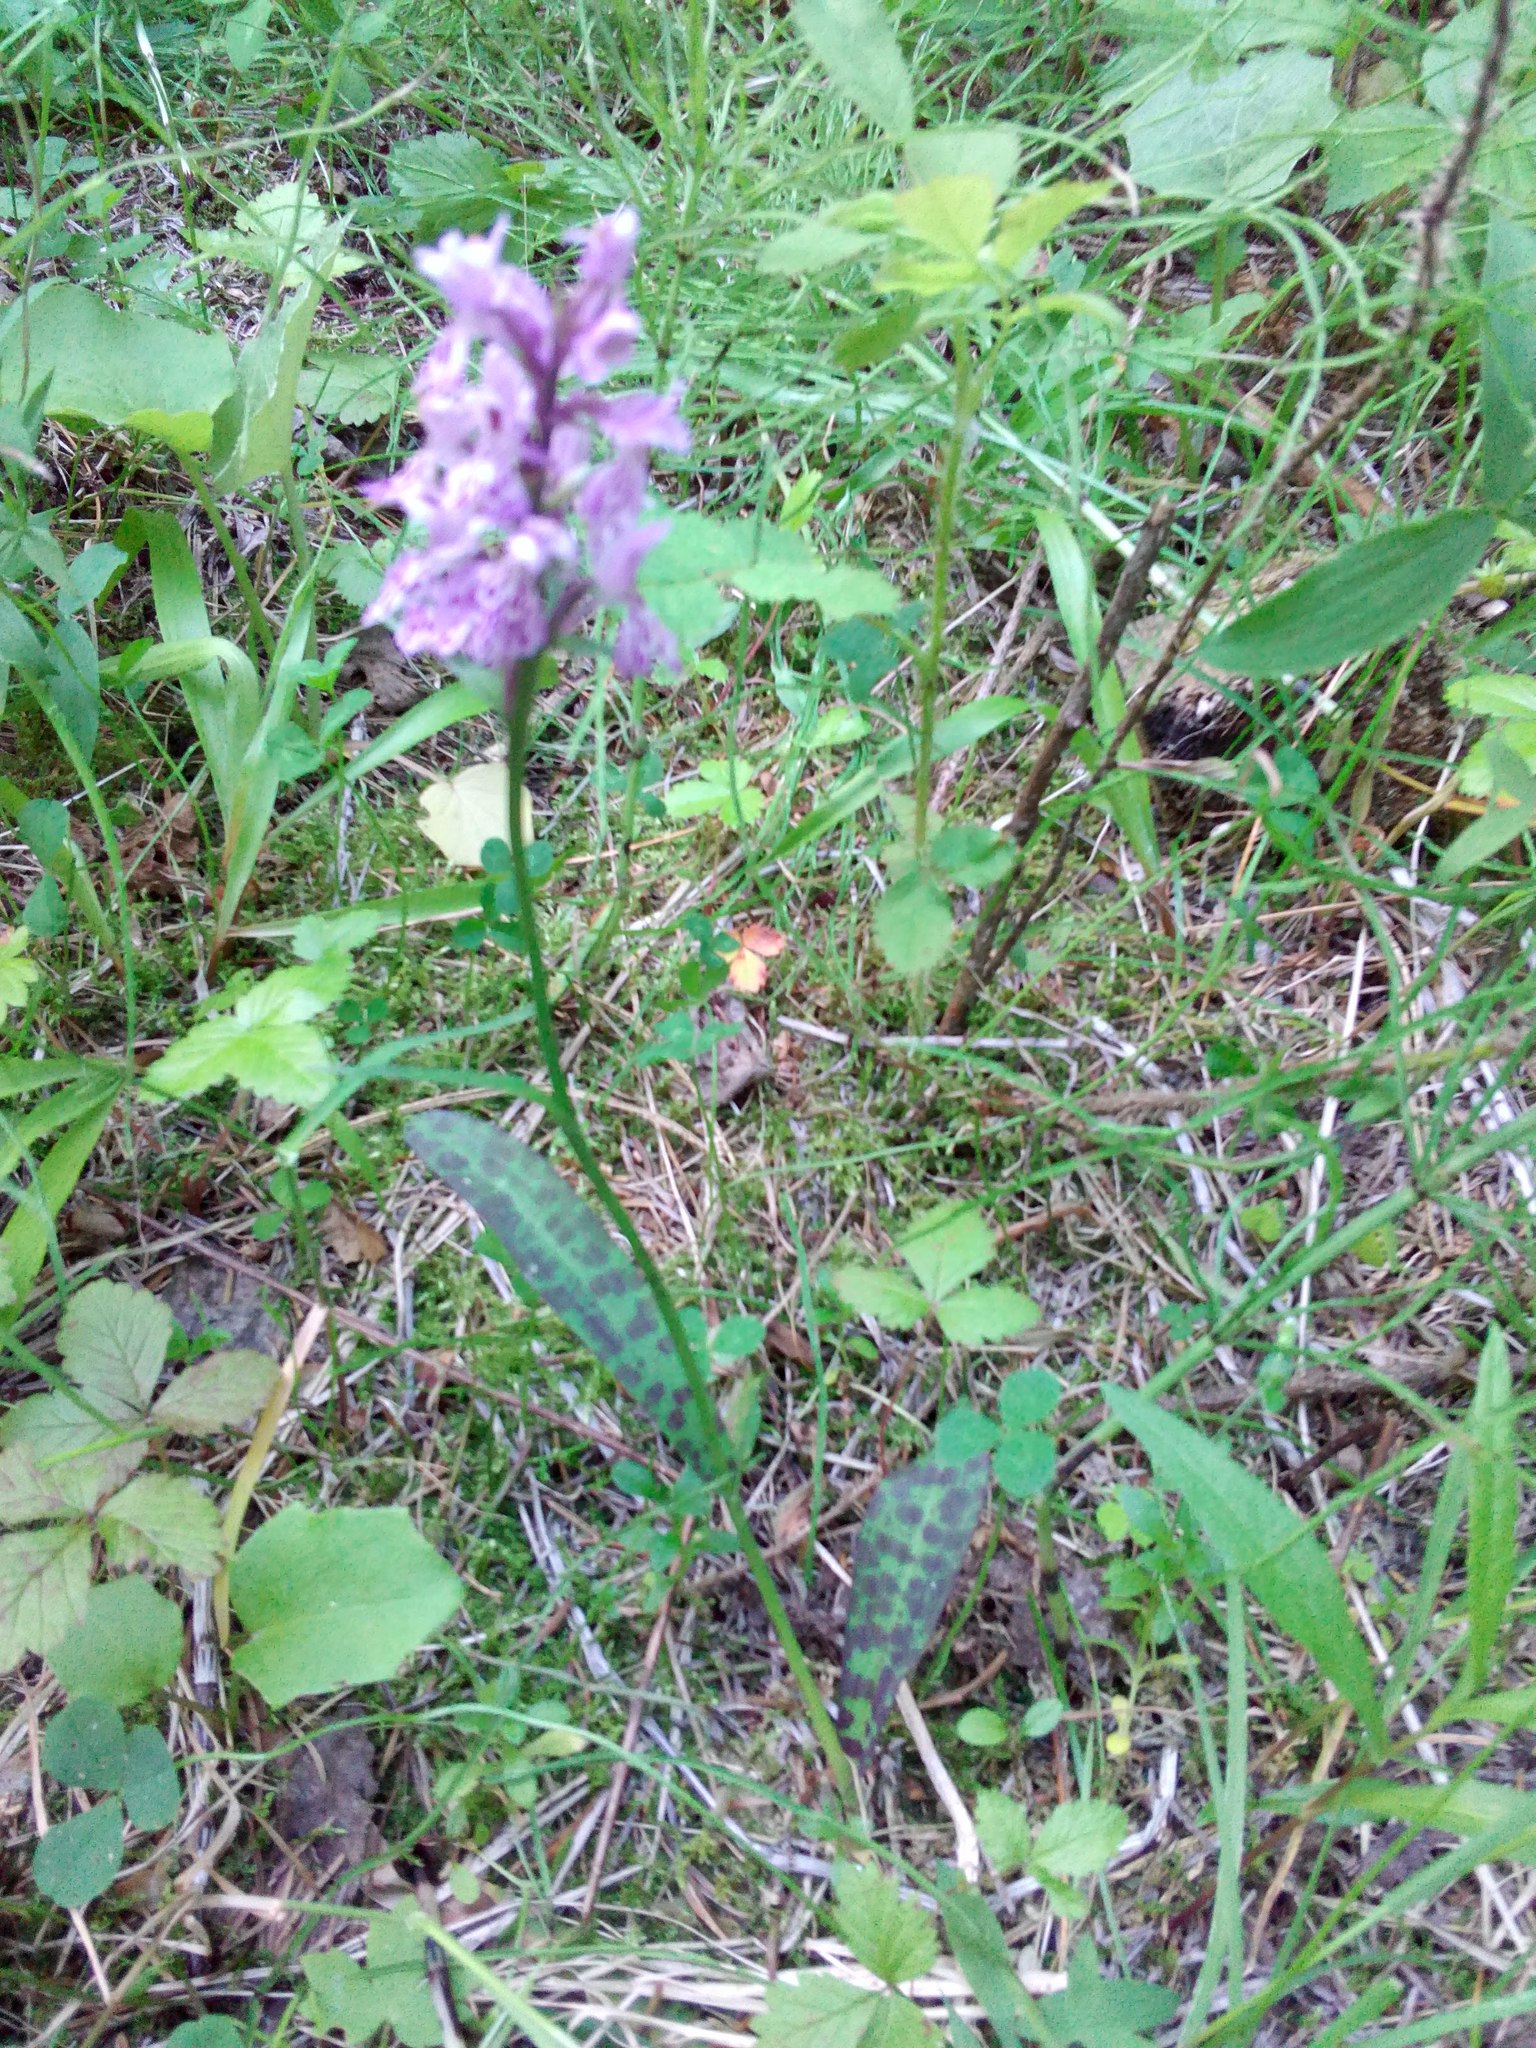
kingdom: Plantae
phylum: Tracheophyta
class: Liliopsida
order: Asparagales
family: Orchidaceae
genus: Dactylorhiza
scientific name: Dactylorhiza maculata
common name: Heath spotted-orchid
